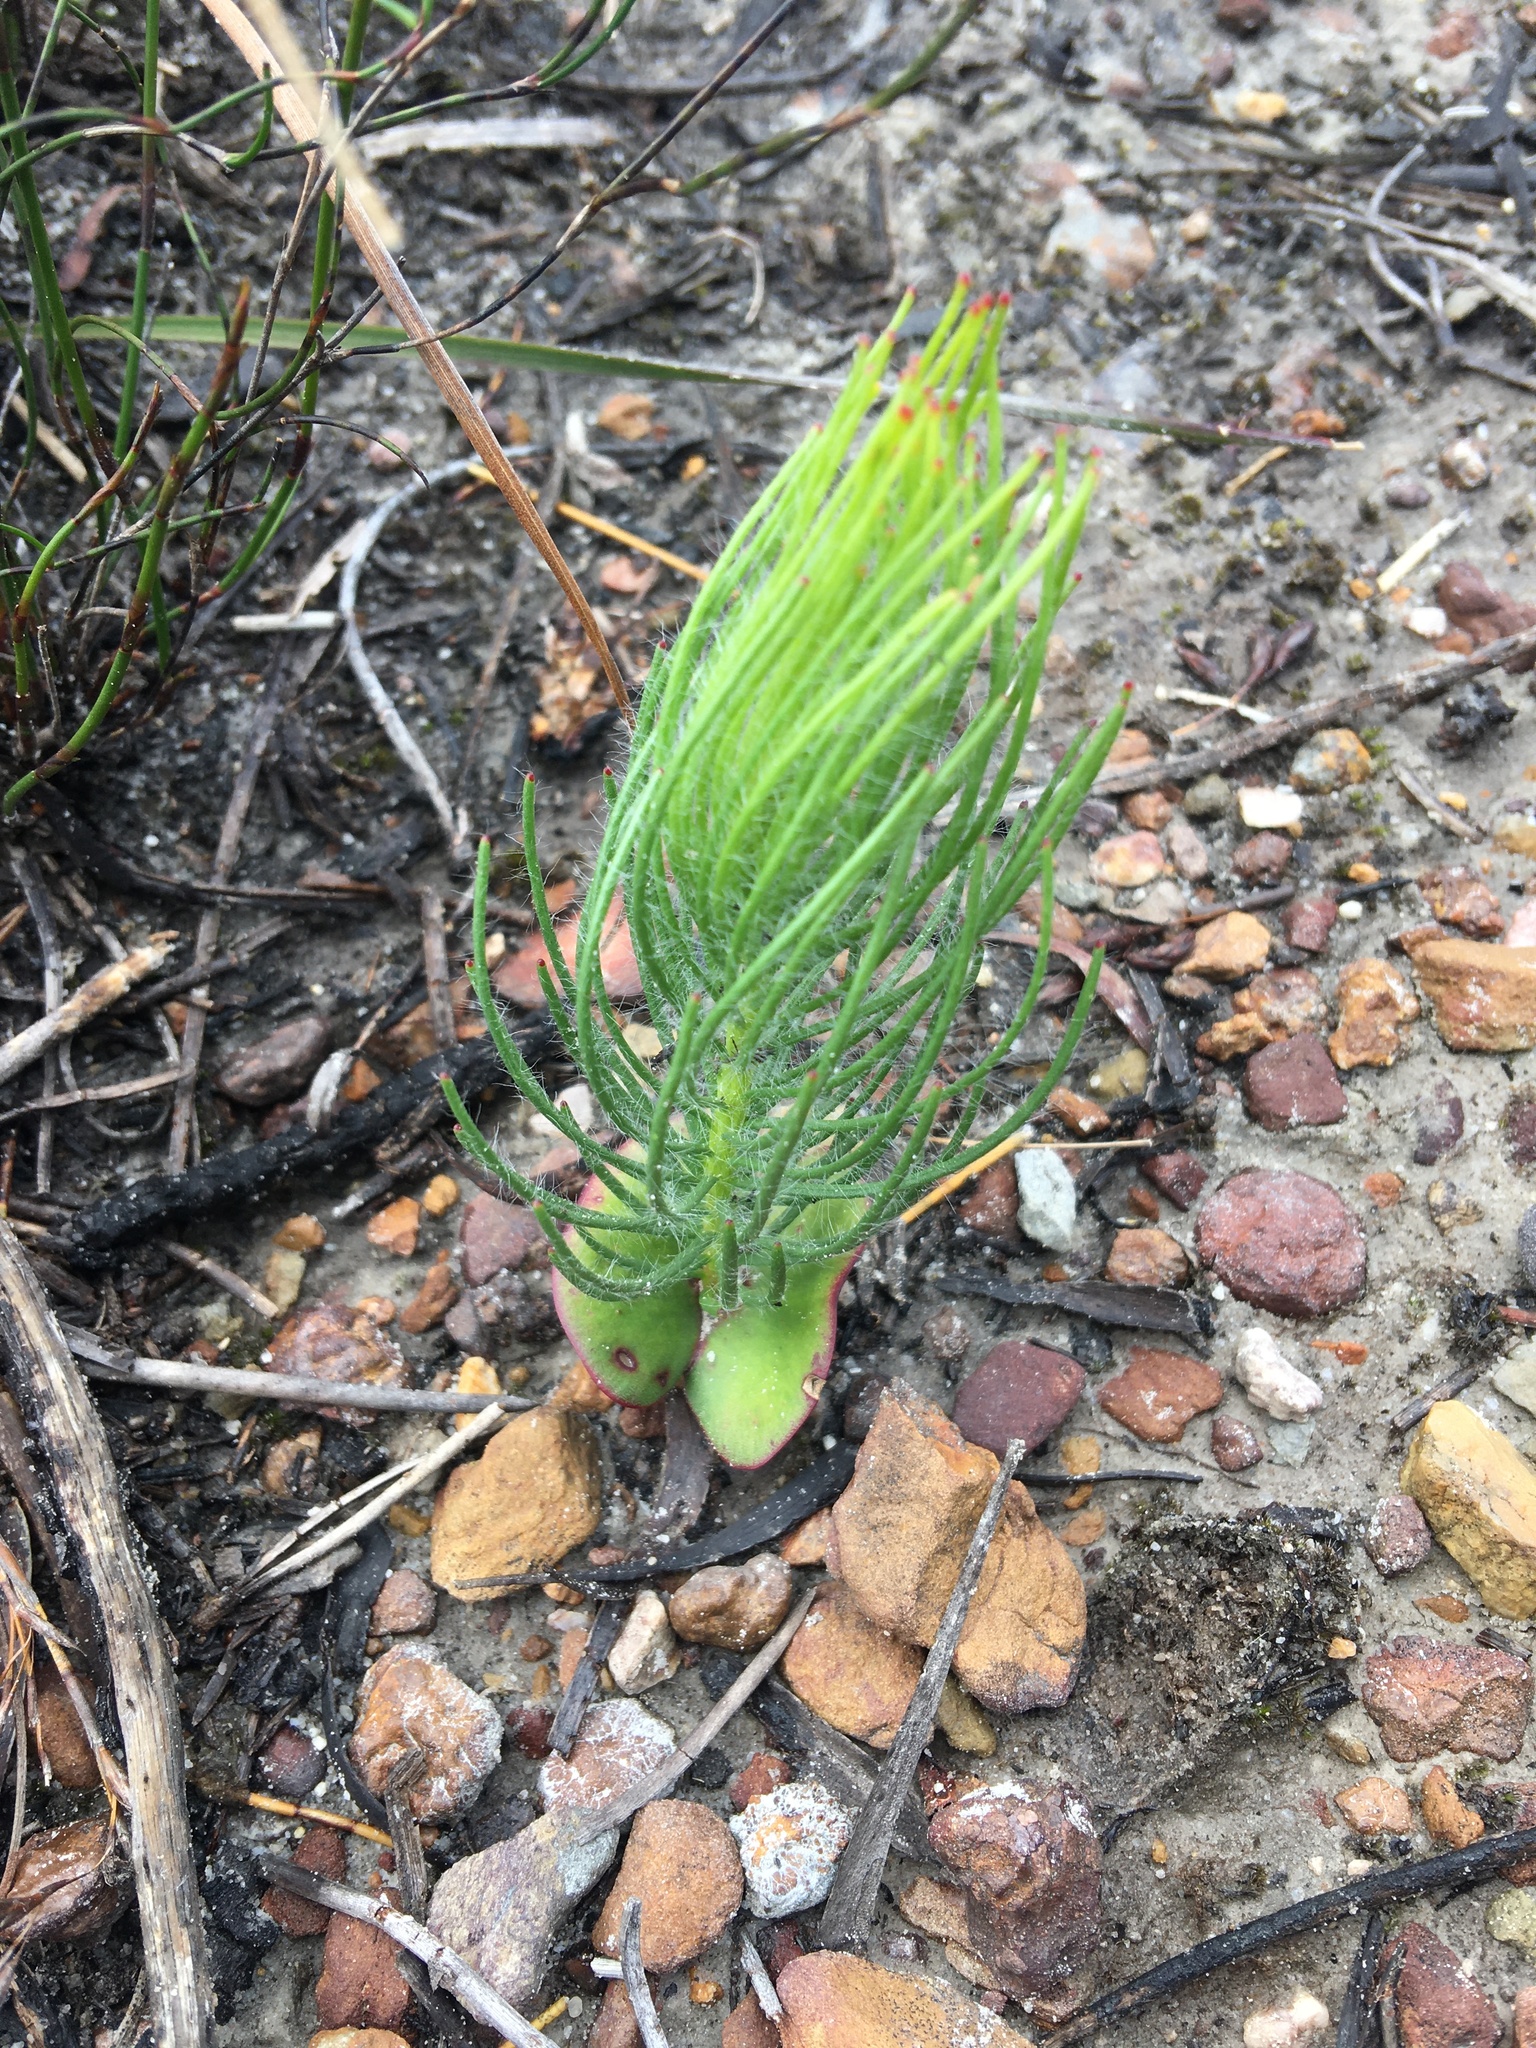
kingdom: Plantae
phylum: Tracheophyta
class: Magnoliopsida
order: Proteales
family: Proteaceae
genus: Leucadendron
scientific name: Leucadendron platyspermum
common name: Plate-seed conebush
